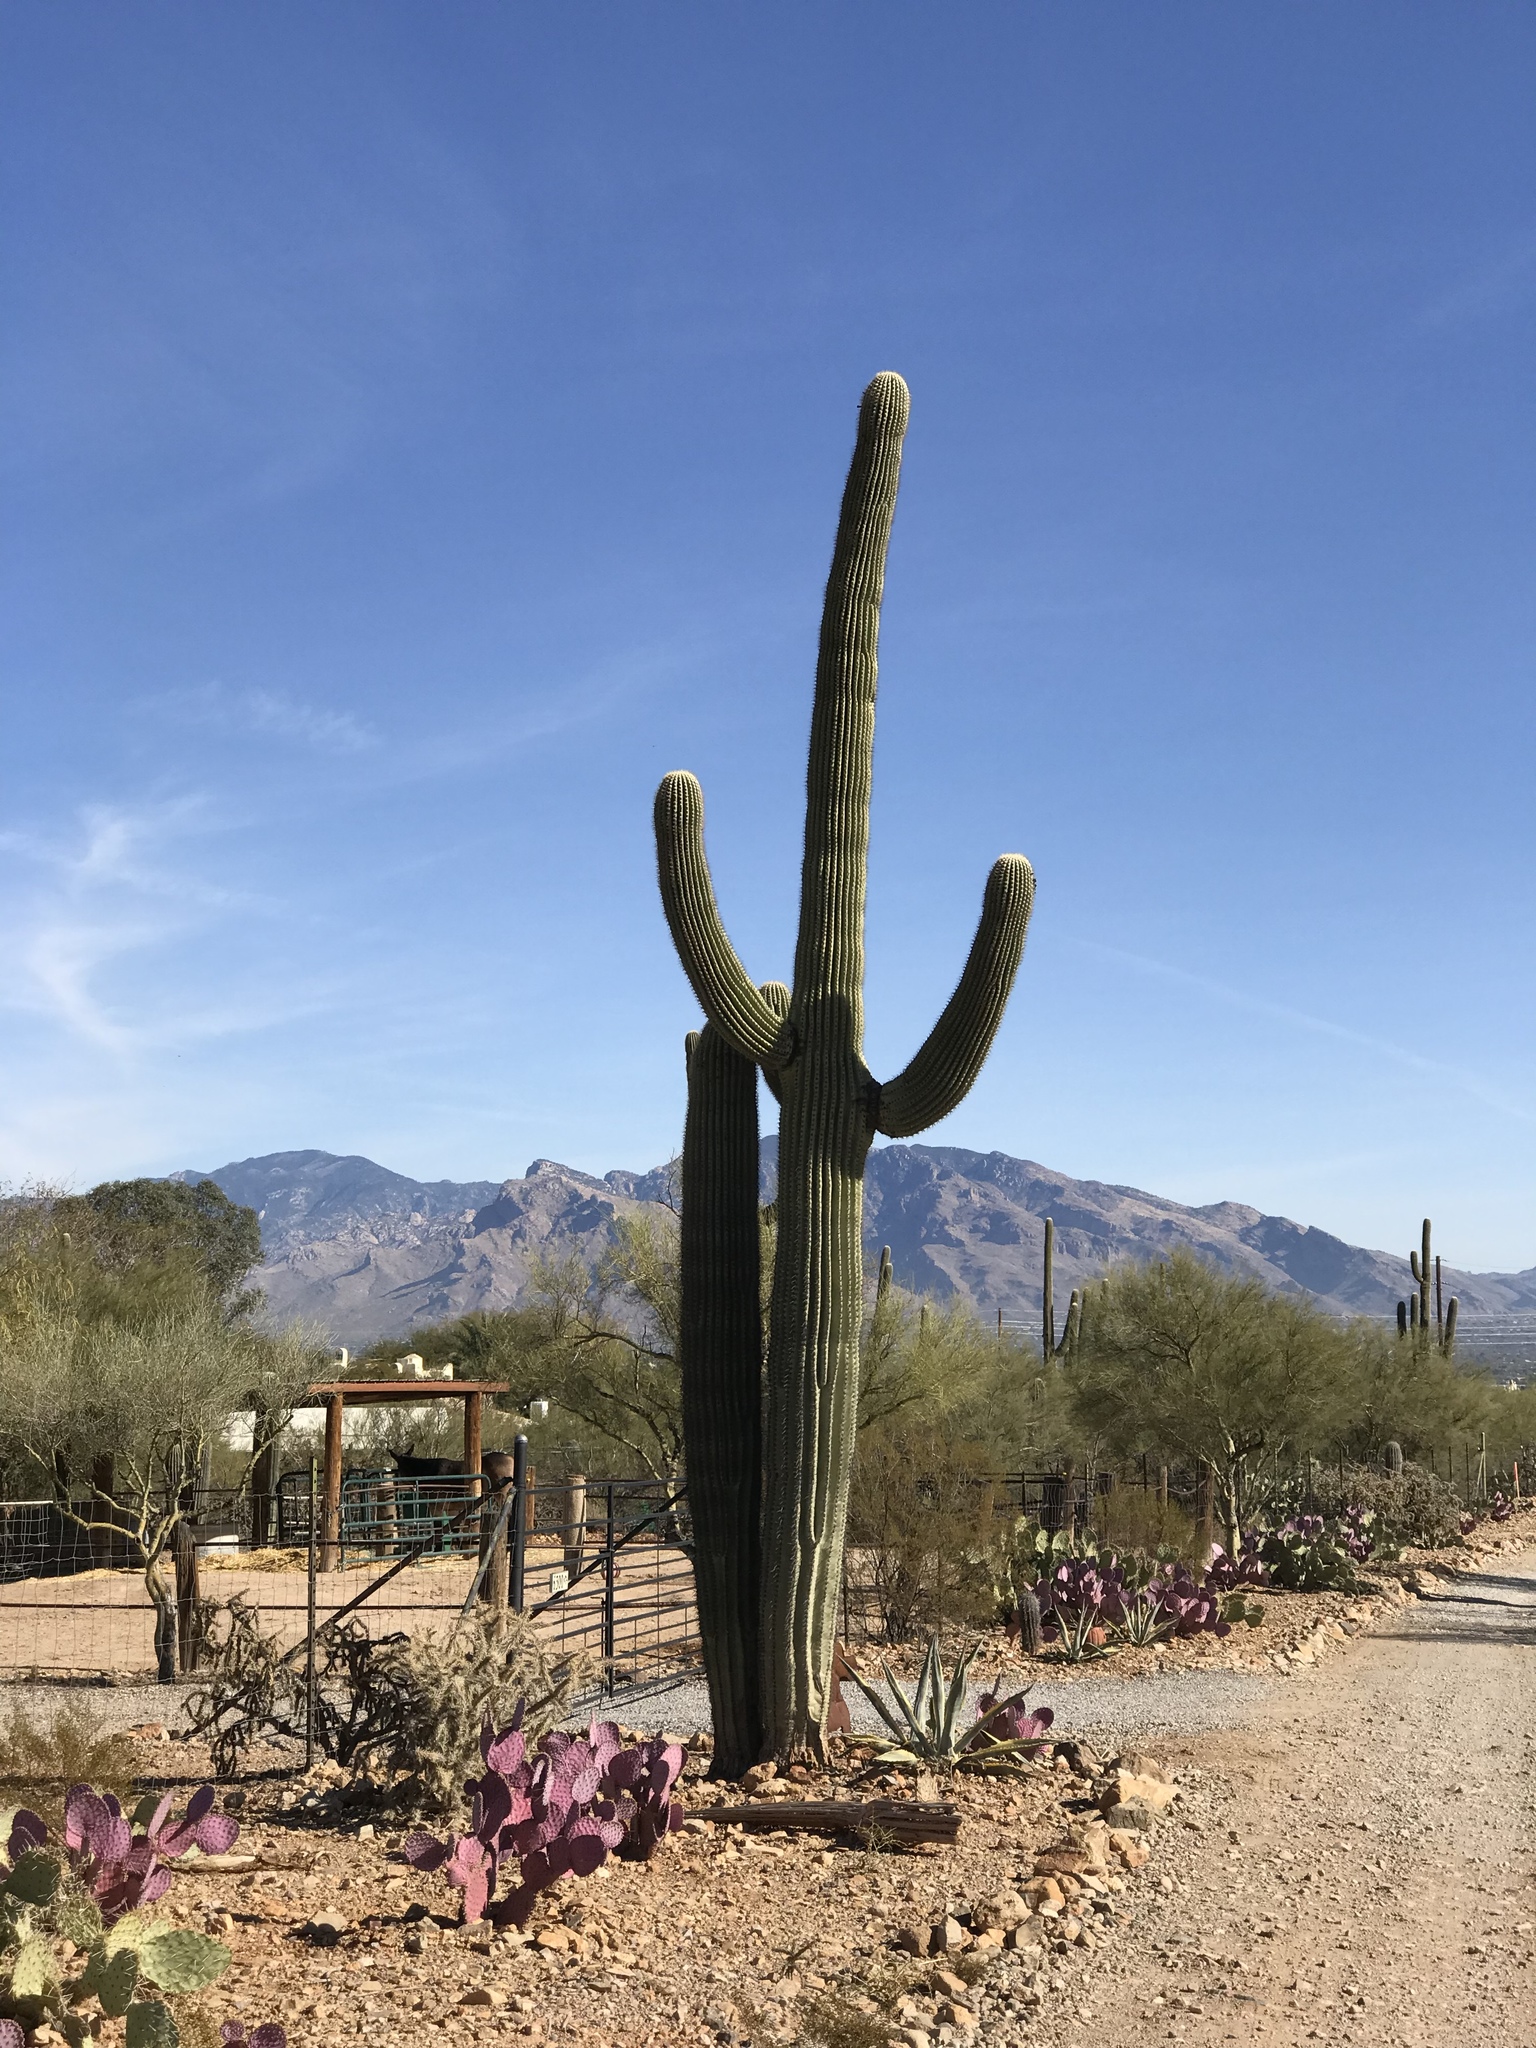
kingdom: Plantae
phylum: Tracheophyta
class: Magnoliopsida
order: Caryophyllales
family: Cactaceae
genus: Carnegiea
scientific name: Carnegiea gigantea
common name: Saguaro
